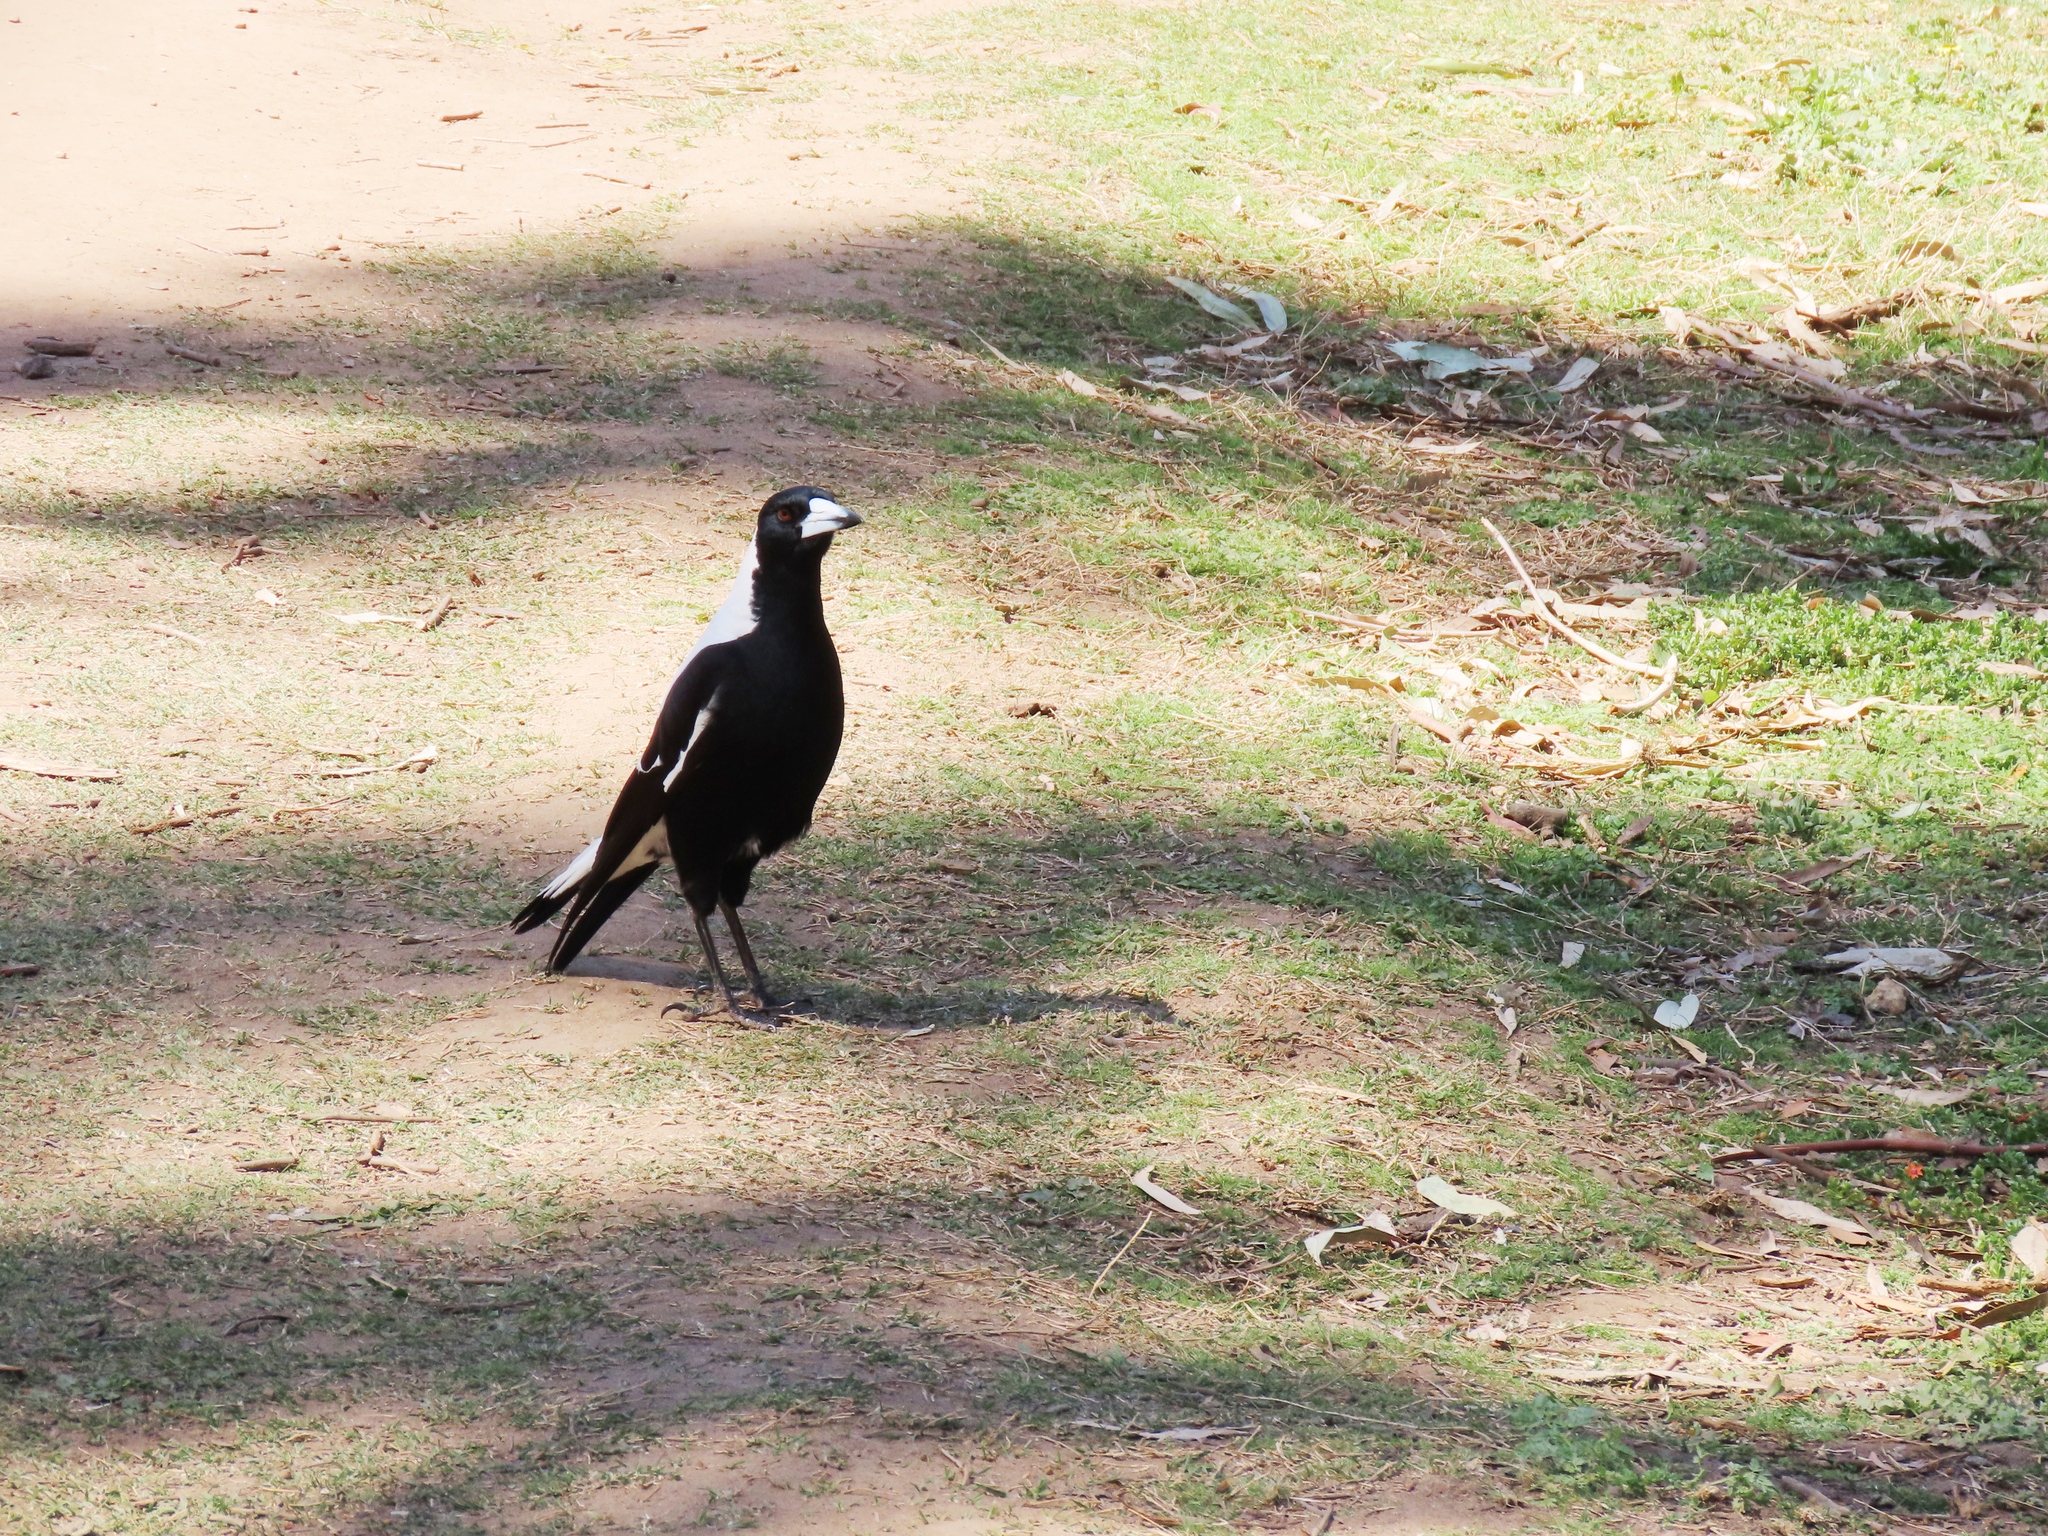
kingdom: Animalia
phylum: Chordata
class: Aves
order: Passeriformes
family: Cracticidae
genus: Gymnorhina
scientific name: Gymnorhina tibicen
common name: Australian magpie
